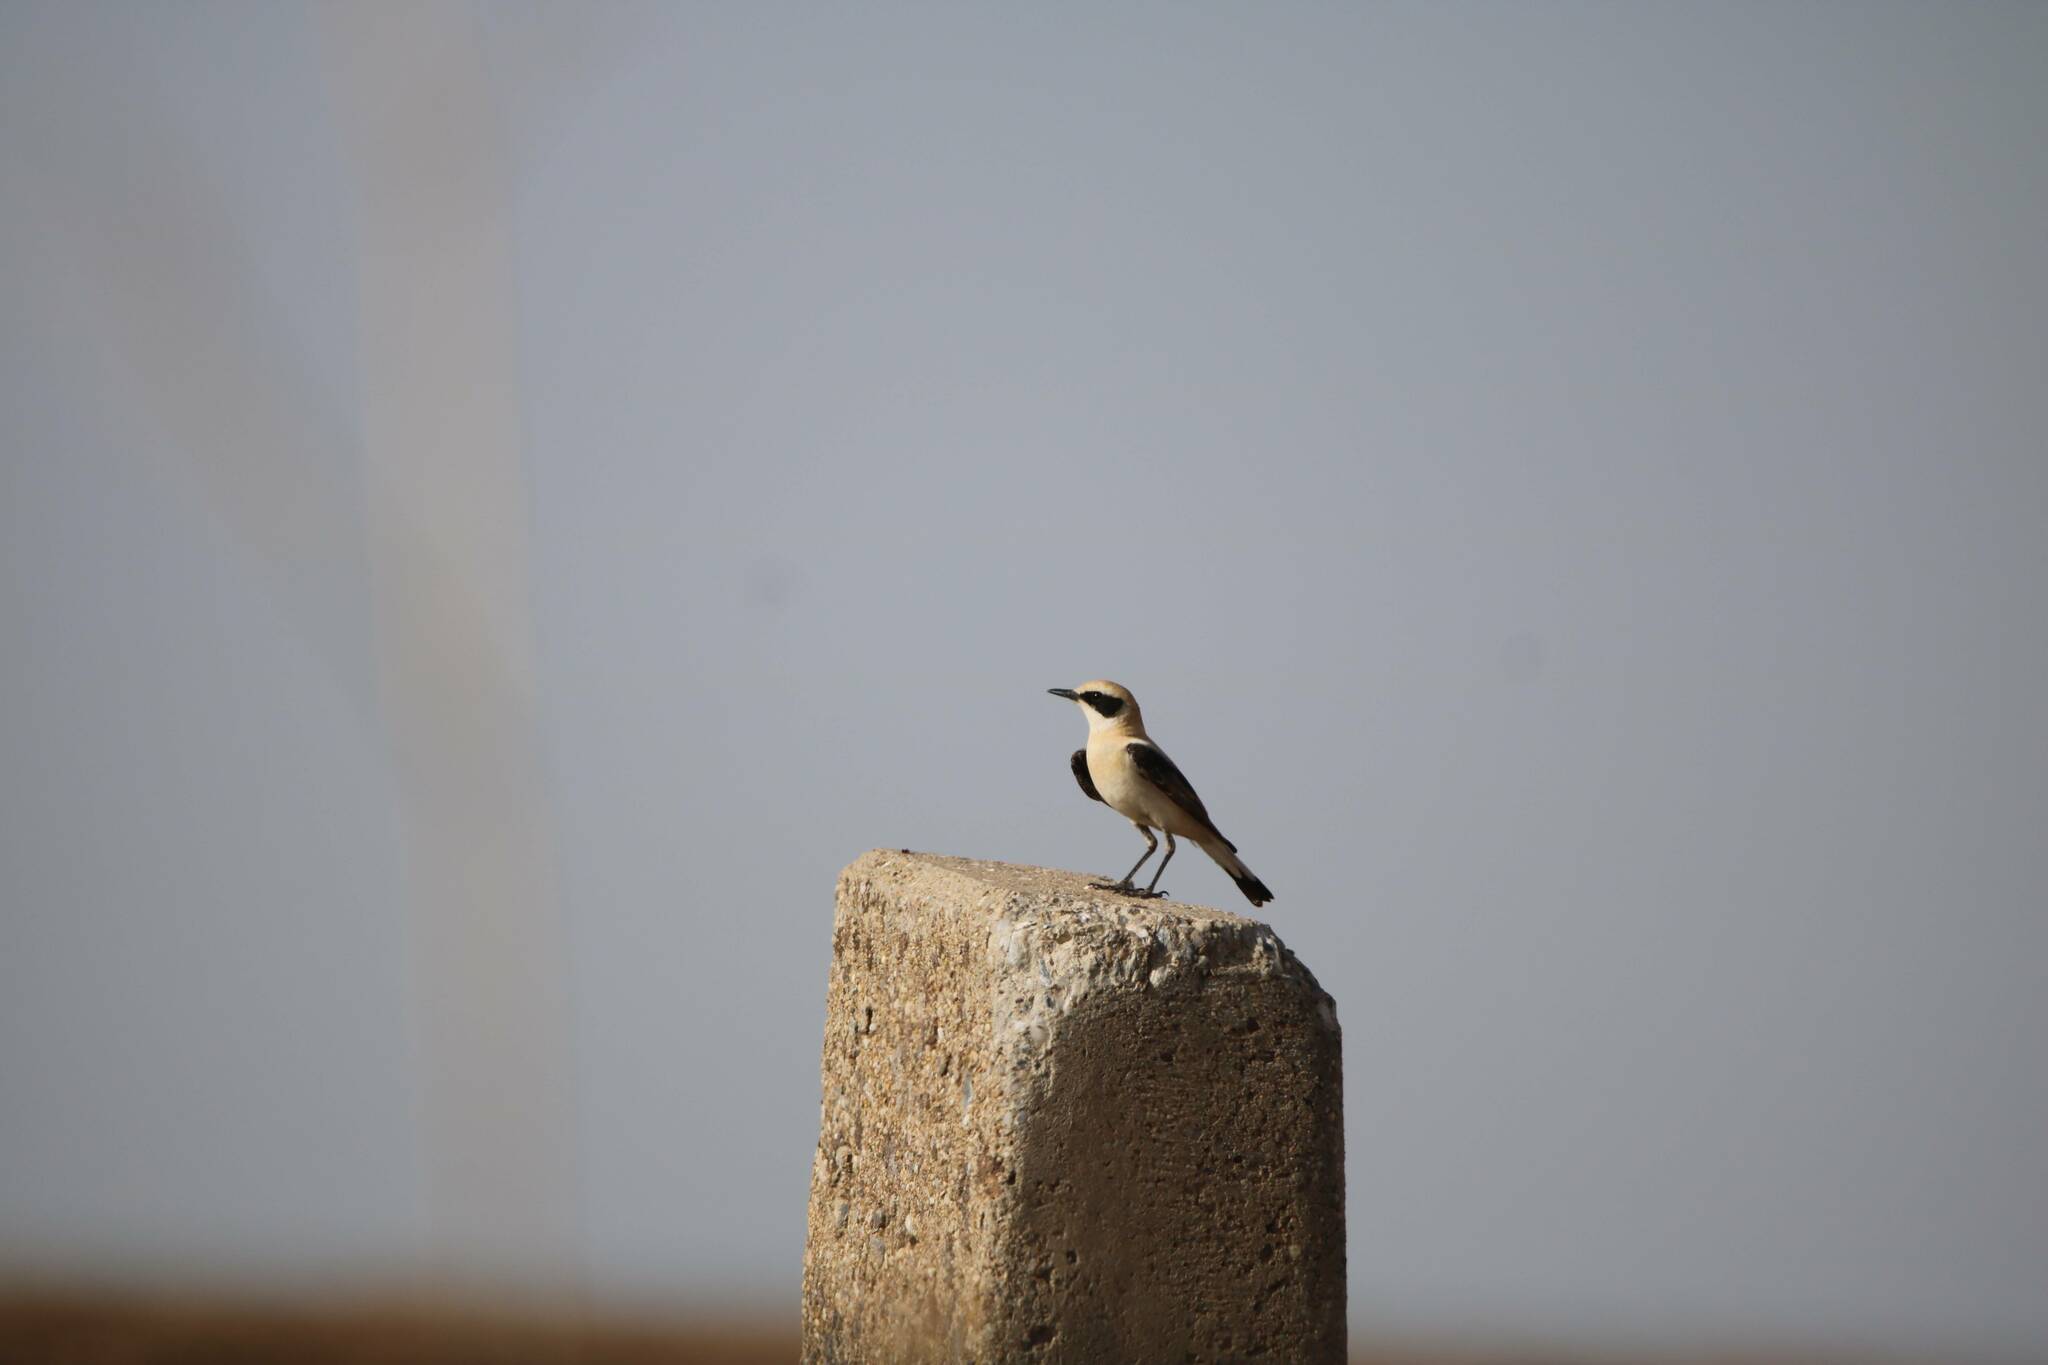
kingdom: Animalia
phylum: Chordata
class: Aves
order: Passeriformes
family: Muscicapidae
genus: Oenanthe
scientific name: Oenanthe hispanica
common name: Black-eared wheatear
